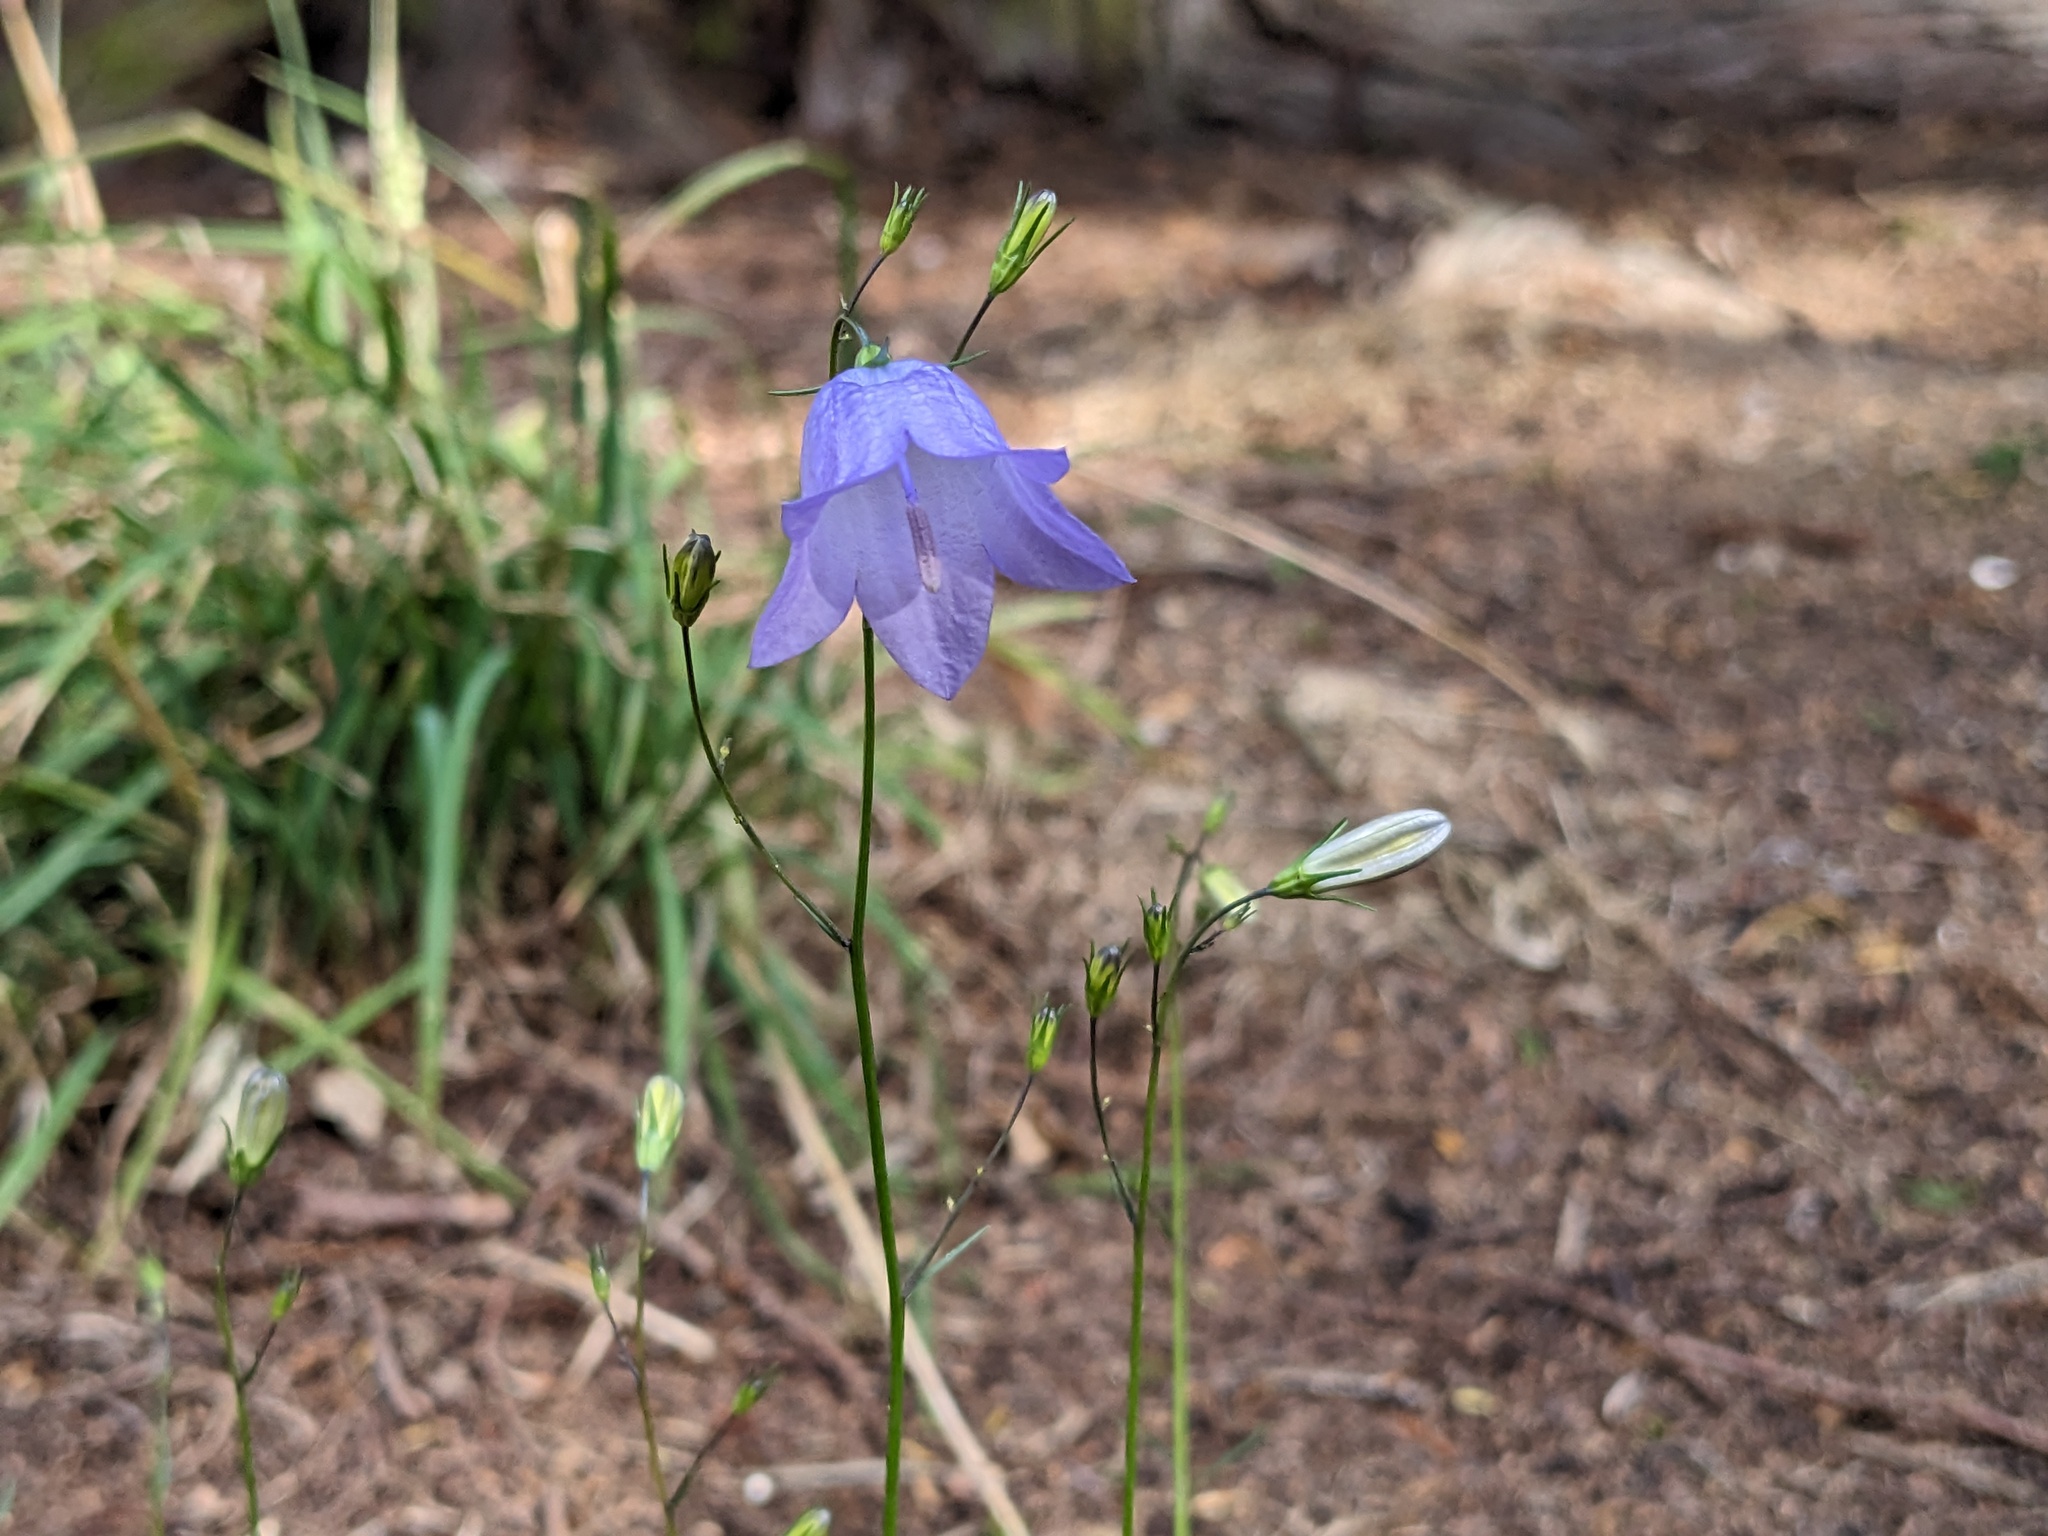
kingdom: Plantae
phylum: Tracheophyta
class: Magnoliopsida
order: Asterales
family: Campanulaceae
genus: Campanula
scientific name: Campanula rotundifolia
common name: Harebell
